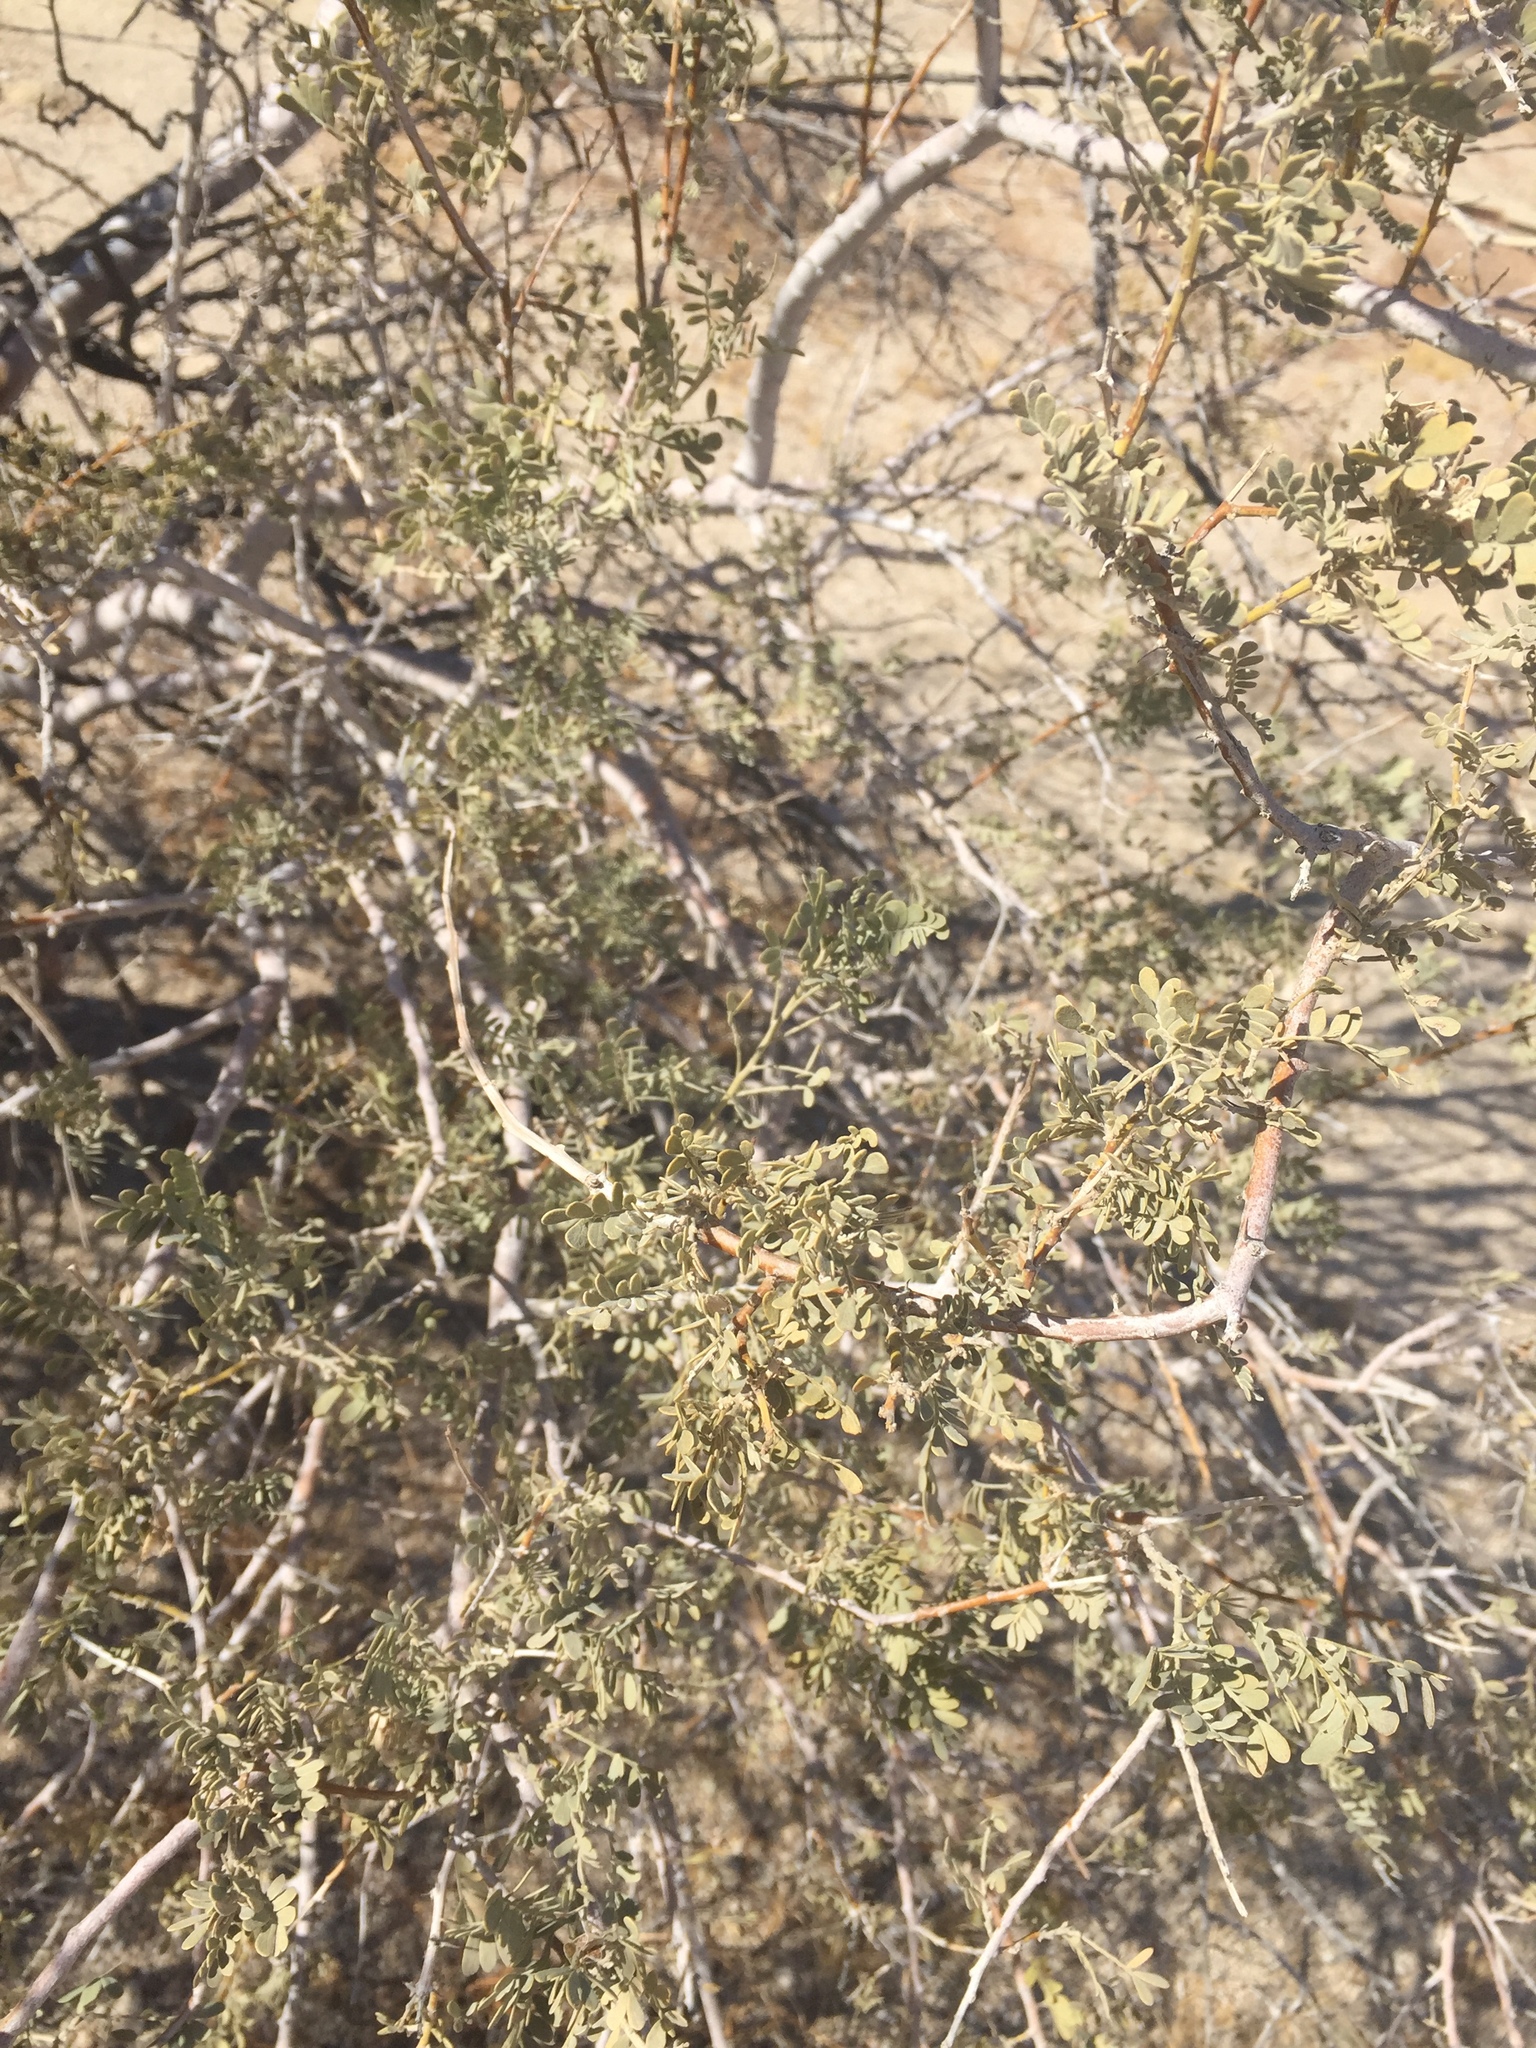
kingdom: Plantae
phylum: Tracheophyta
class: Magnoliopsida
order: Fabales
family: Fabaceae
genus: Olneya
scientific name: Olneya tesota
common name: Desert ironwood
